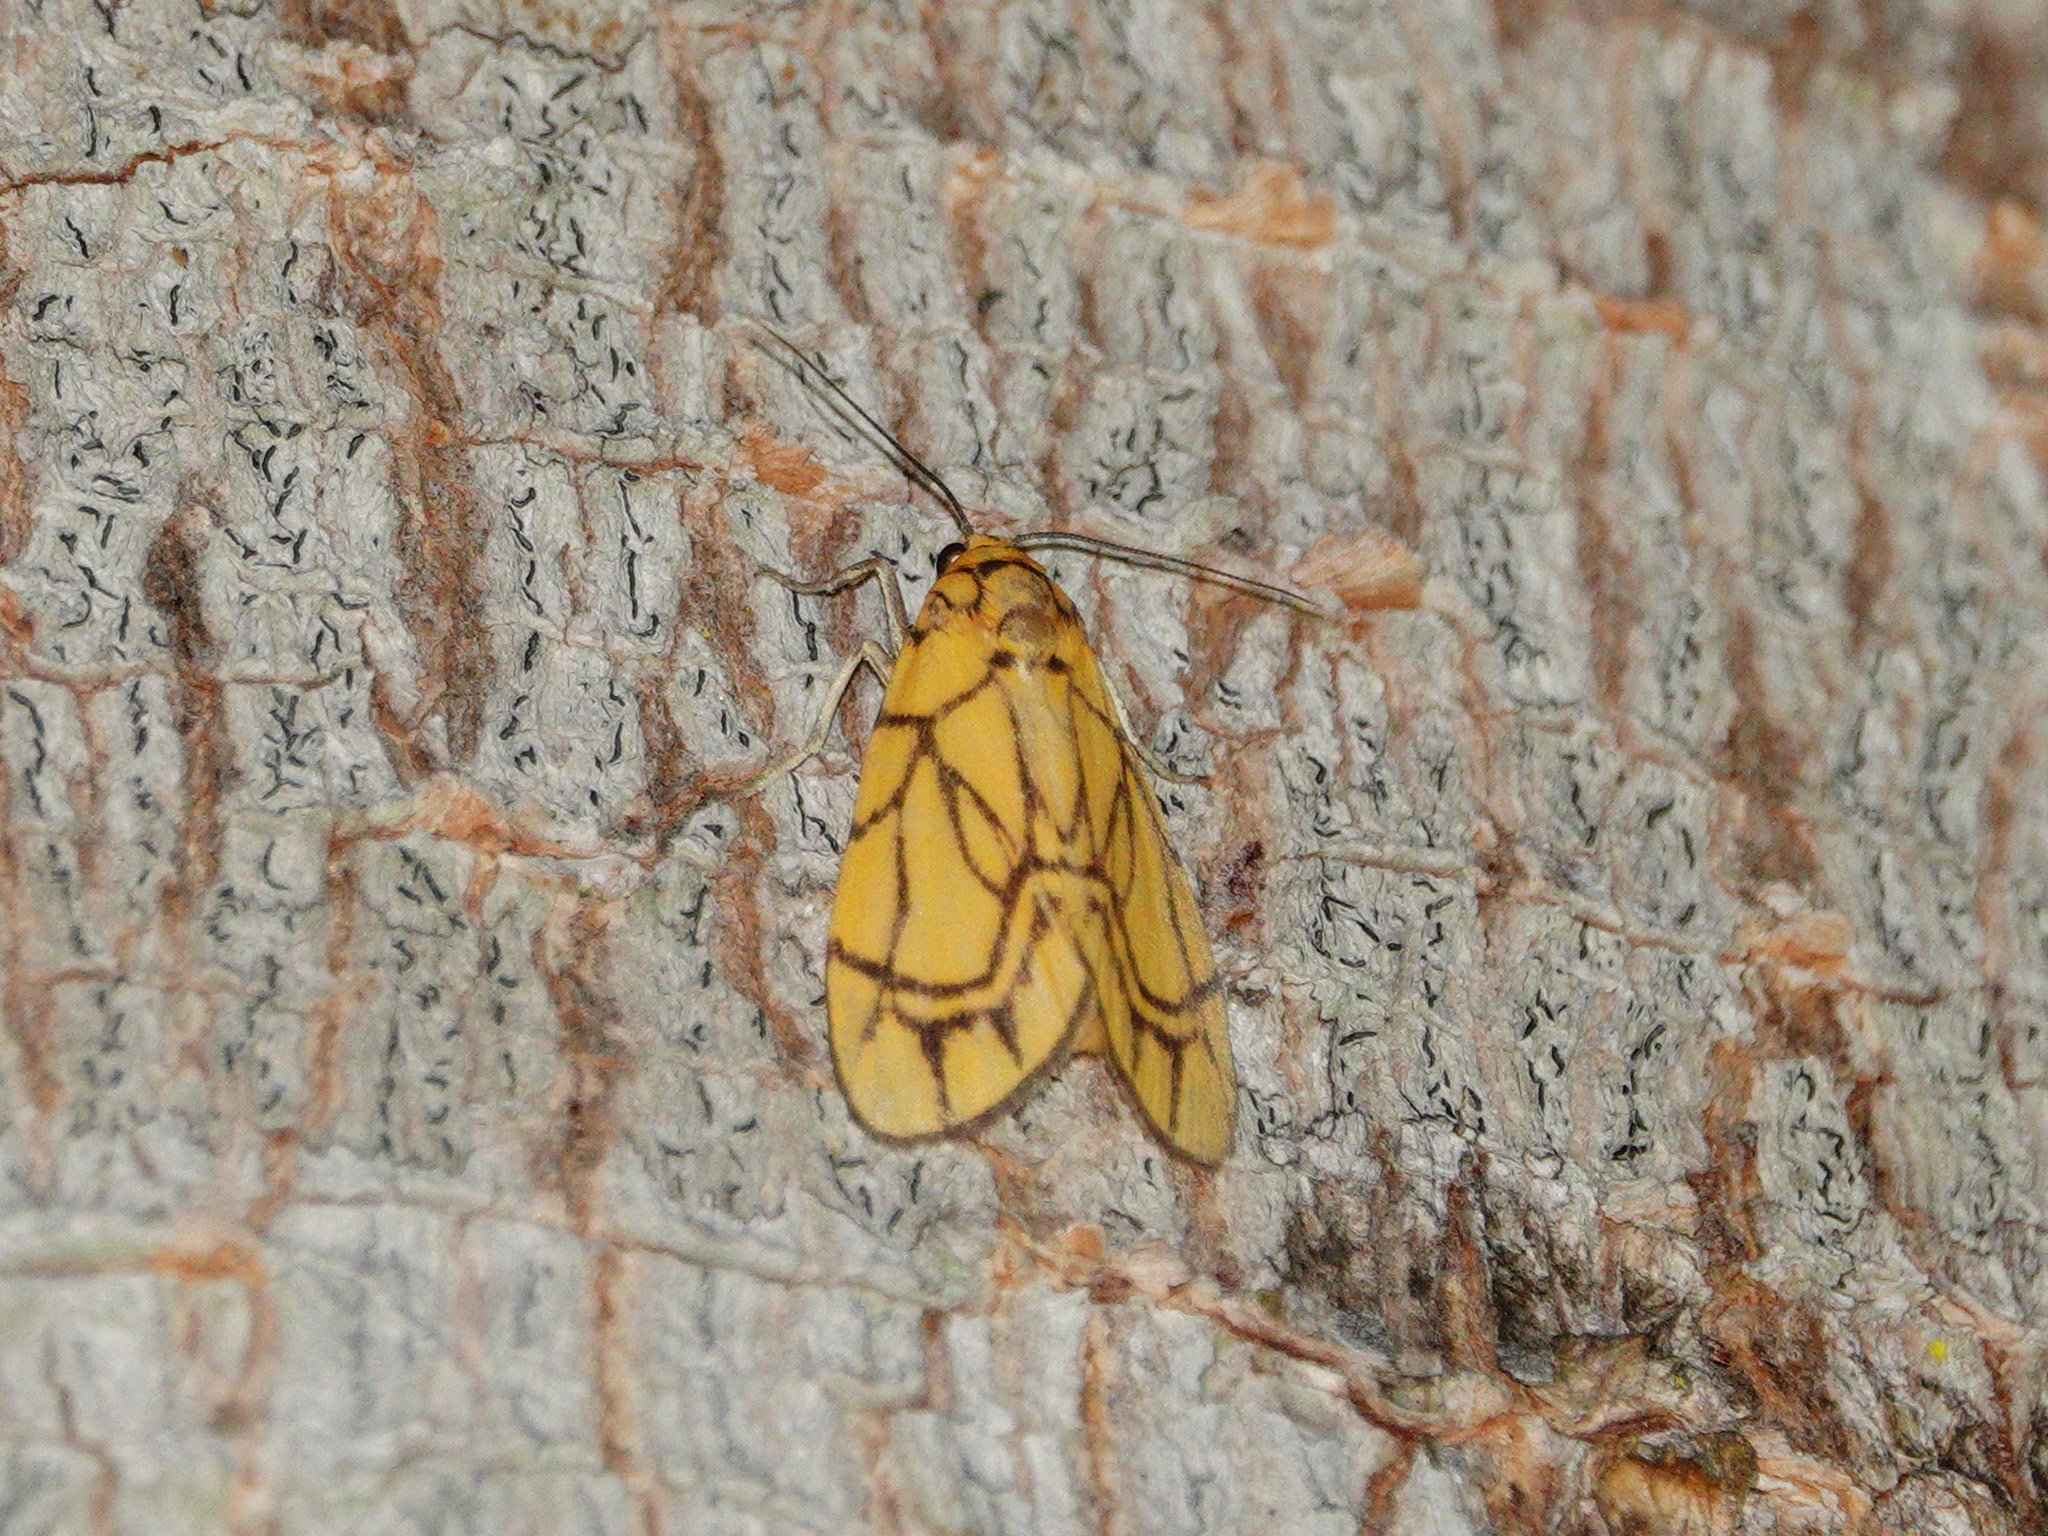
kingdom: Animalia
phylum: Arthropoda
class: Insecta
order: Lepidoptera
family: Erebidae
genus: Cyme
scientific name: Cyme euprepioides
